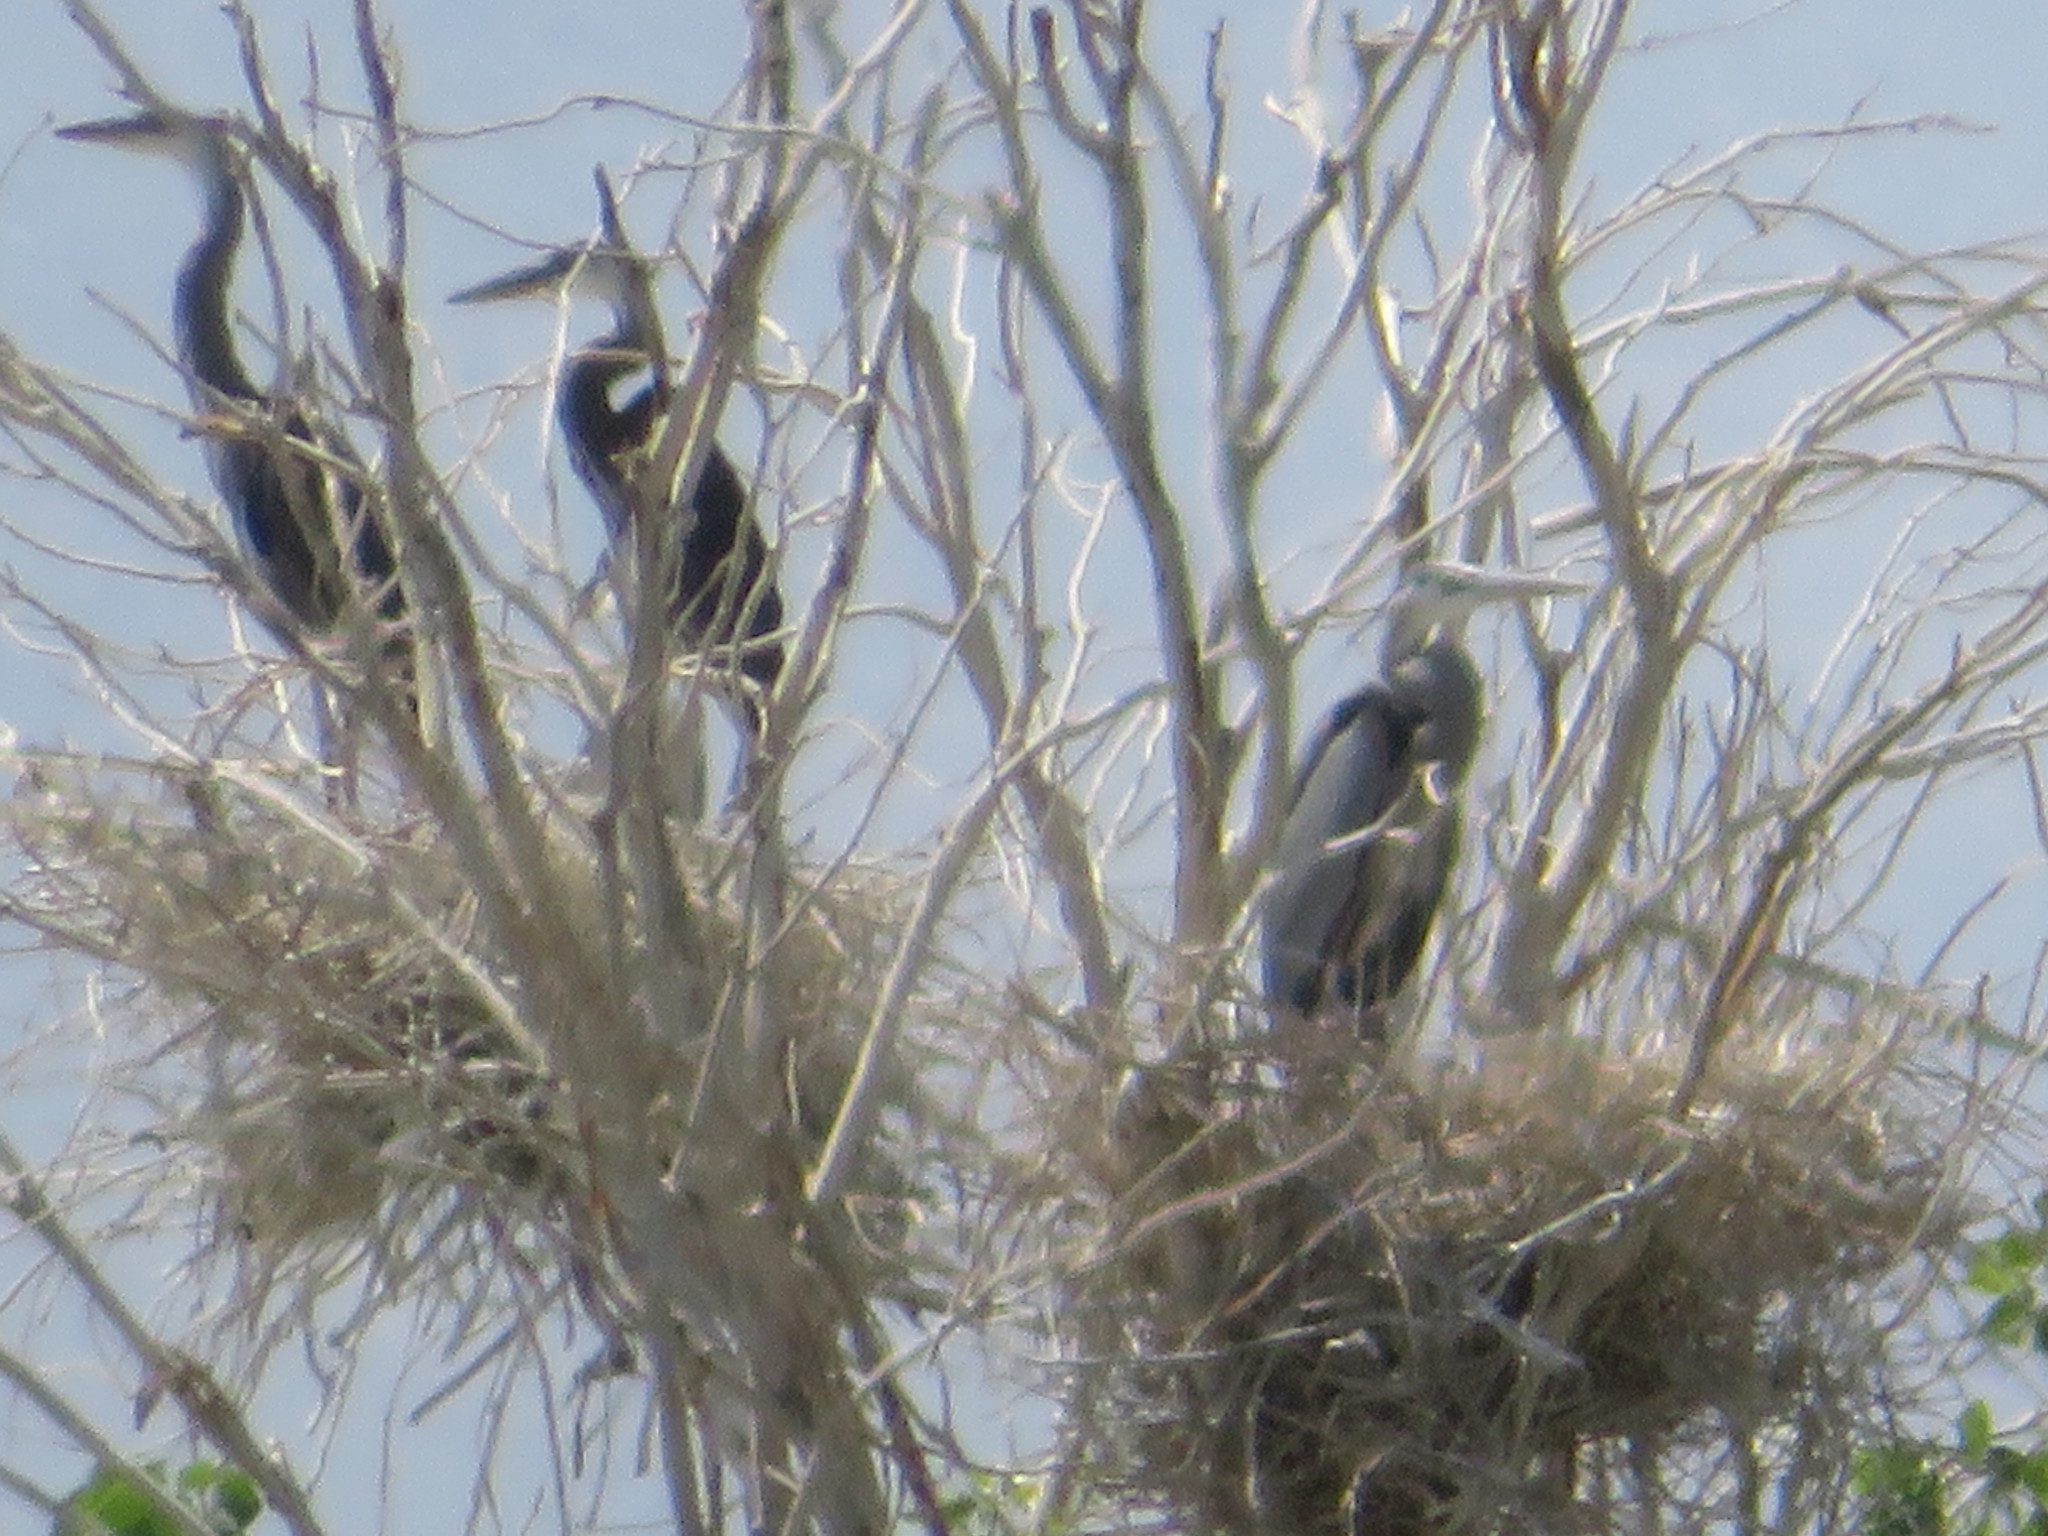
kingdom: Animalia
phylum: Chordata
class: Aves
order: Pelecaniformes
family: Ardeidae
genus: Ardea
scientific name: Ardea herodias
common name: Great blue heron
